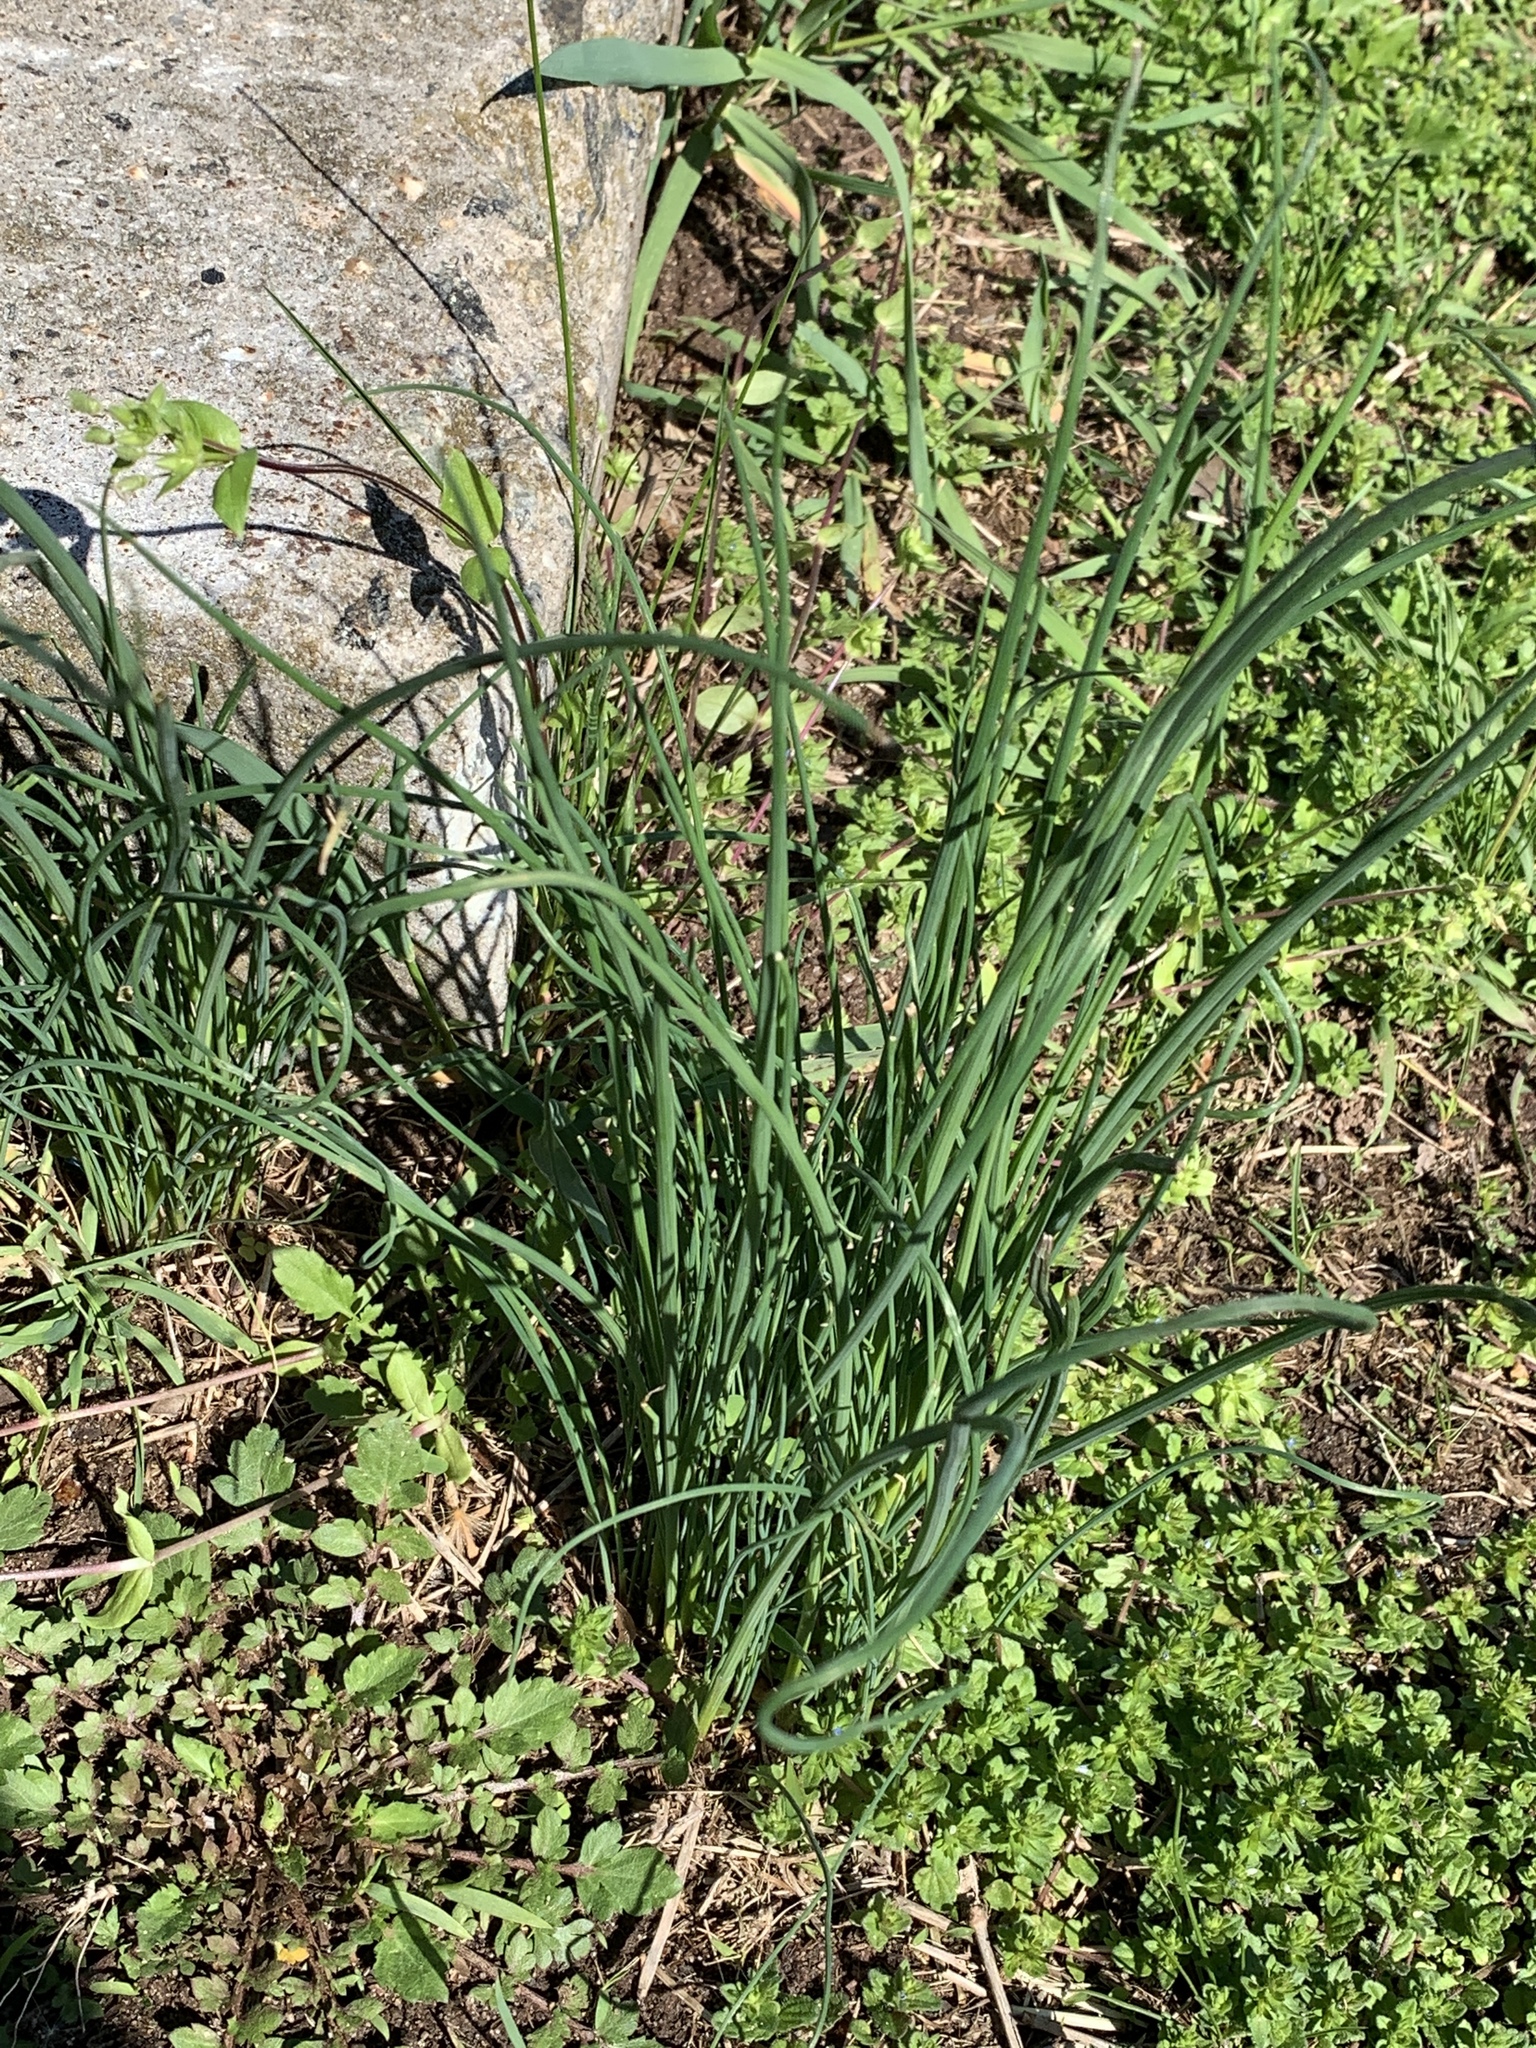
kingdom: Plantae
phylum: Tracheophyta
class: Liliopsida
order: Asparagales
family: Amaryllidaceae
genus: Allium
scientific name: Allium vineale
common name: Crow garlic
